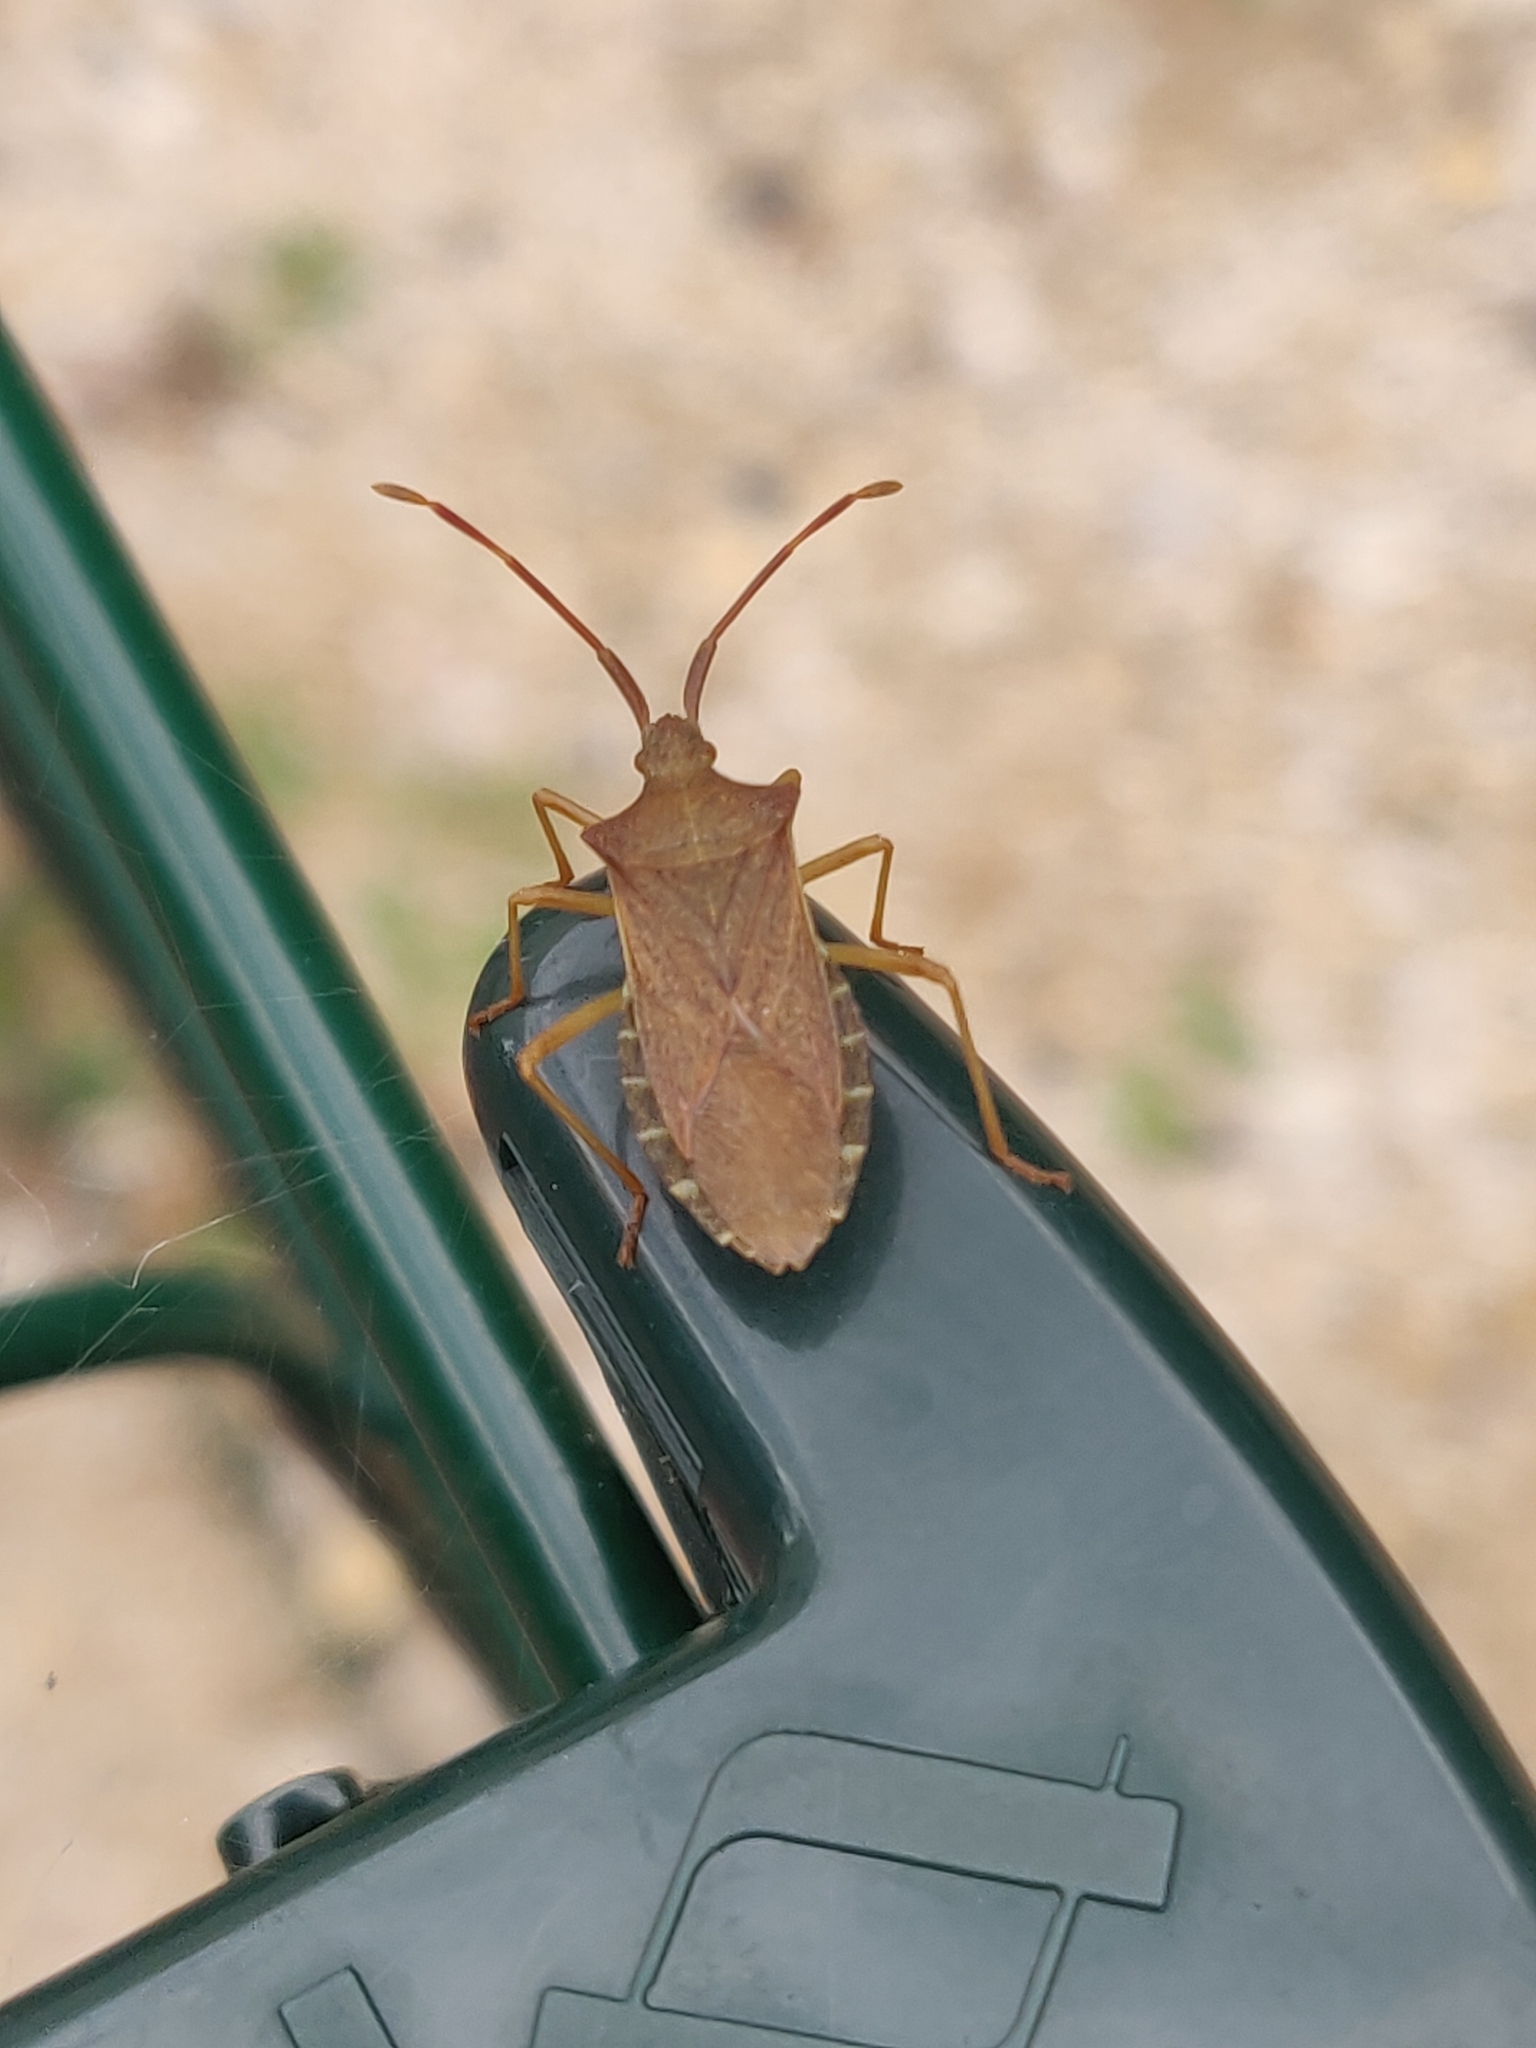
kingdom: Animalia
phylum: Arthropoda
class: Insecta
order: Hemiptera
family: Coreidae
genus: Gonocerus
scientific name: Gonocerus acuteangulatus
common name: Box bug
